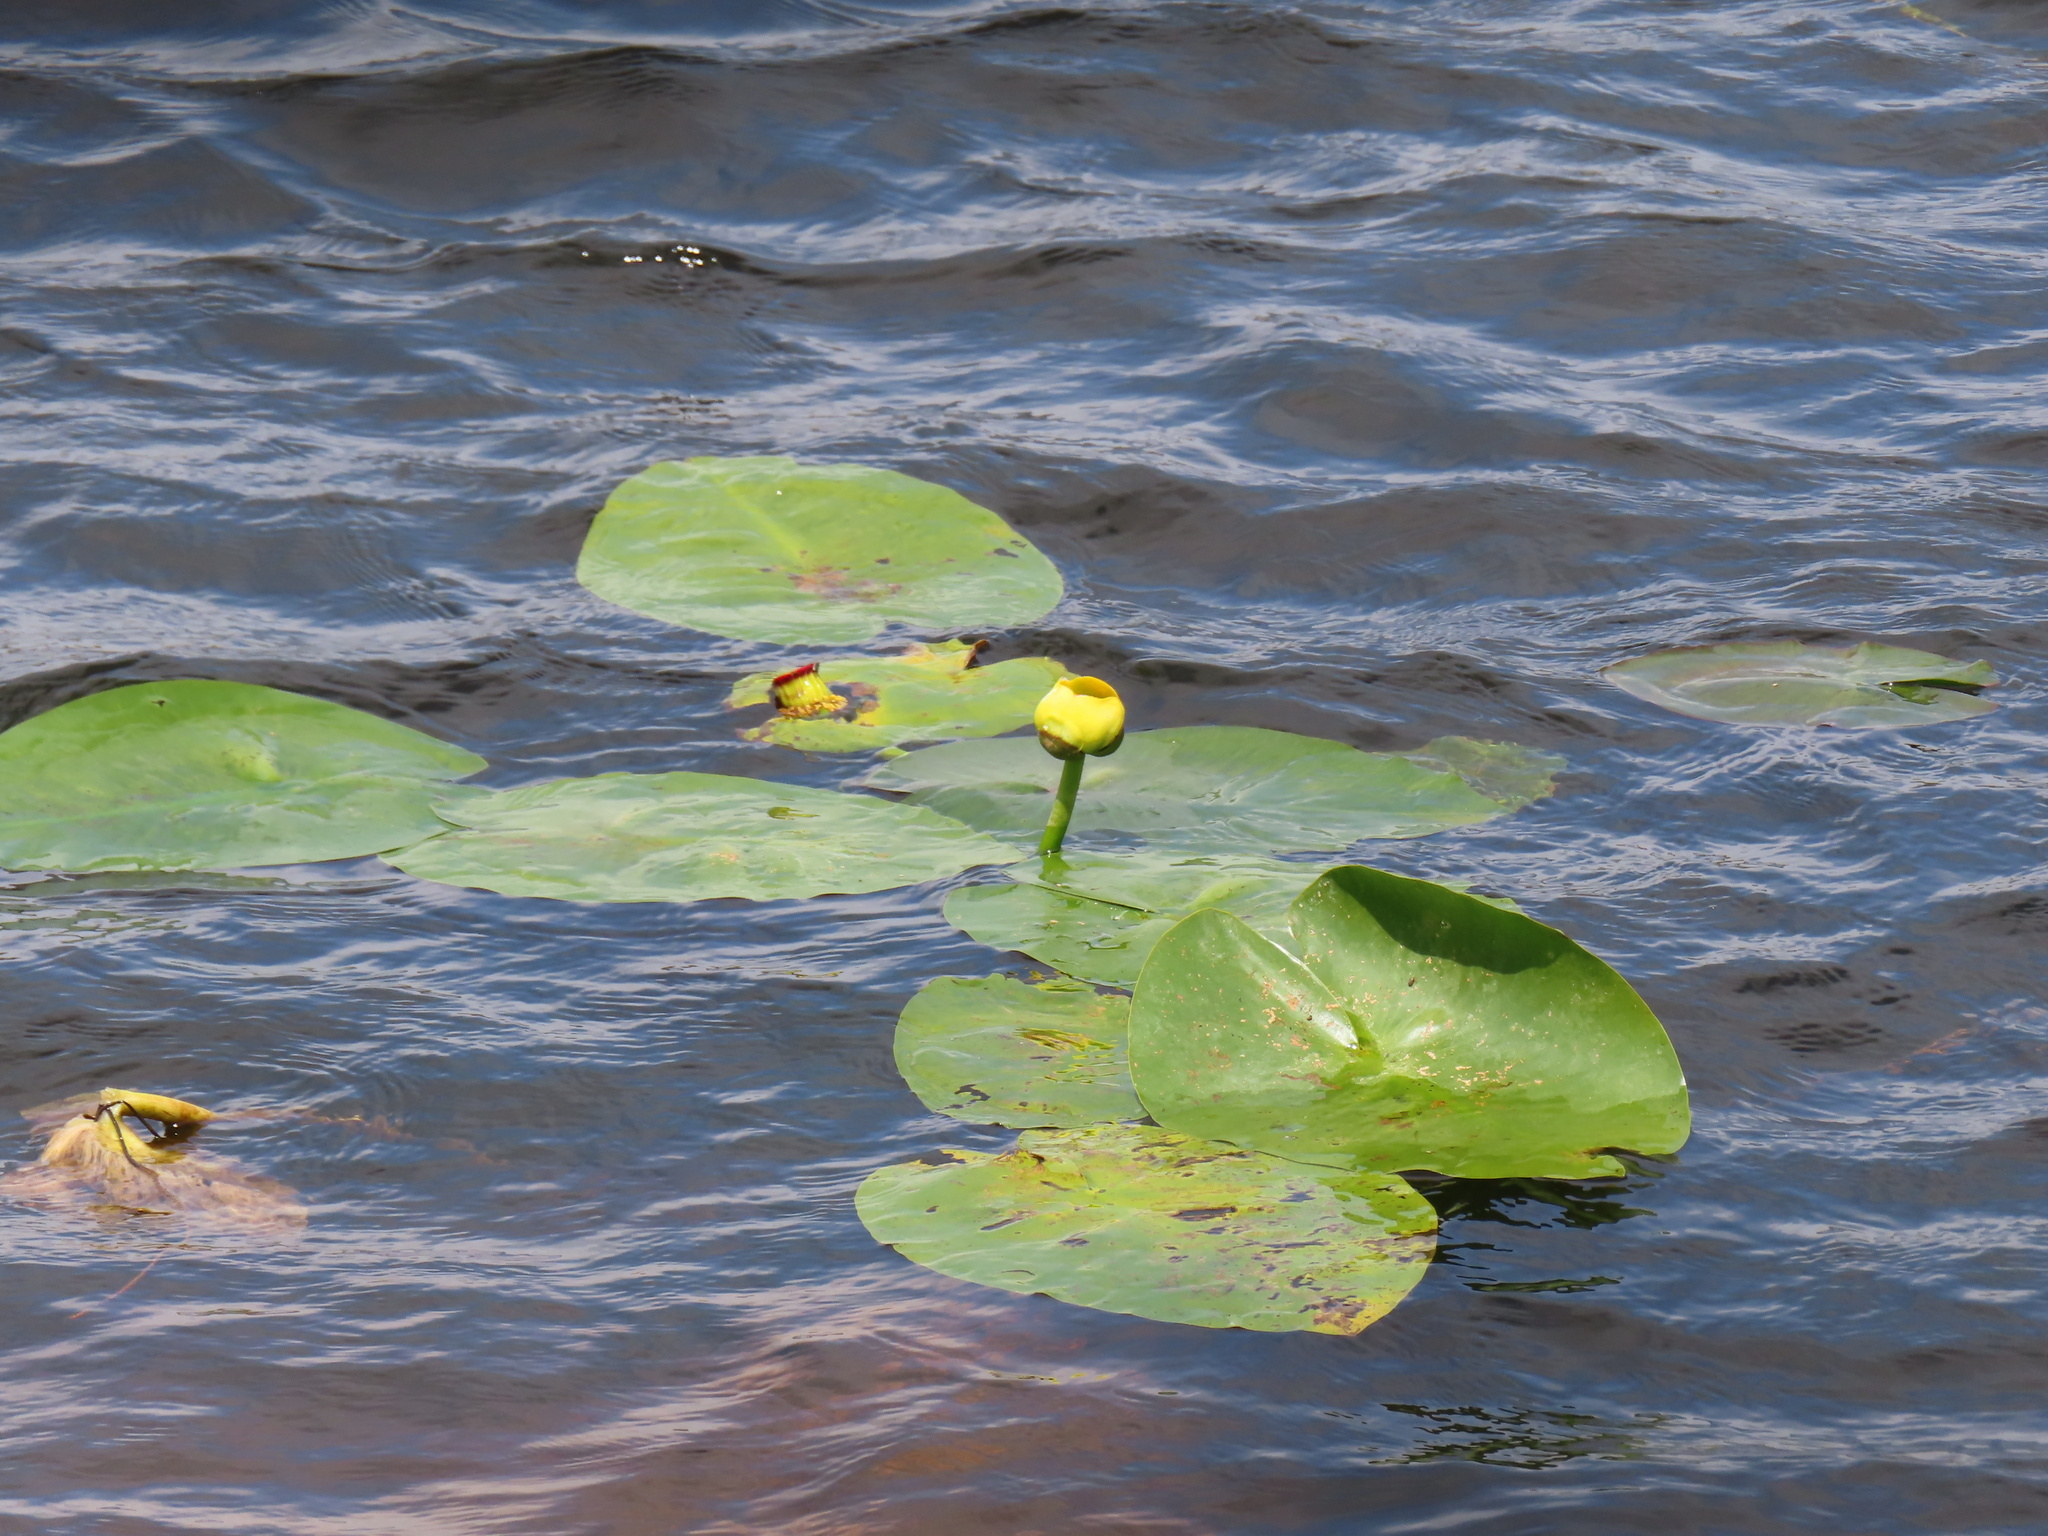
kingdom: Plantae
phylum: Tracheophyta
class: Magnoliopsida
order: Nymphaeales
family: Nymphaeaceae
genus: Nuphar
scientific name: Nuphar advena
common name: Spatter-dock
